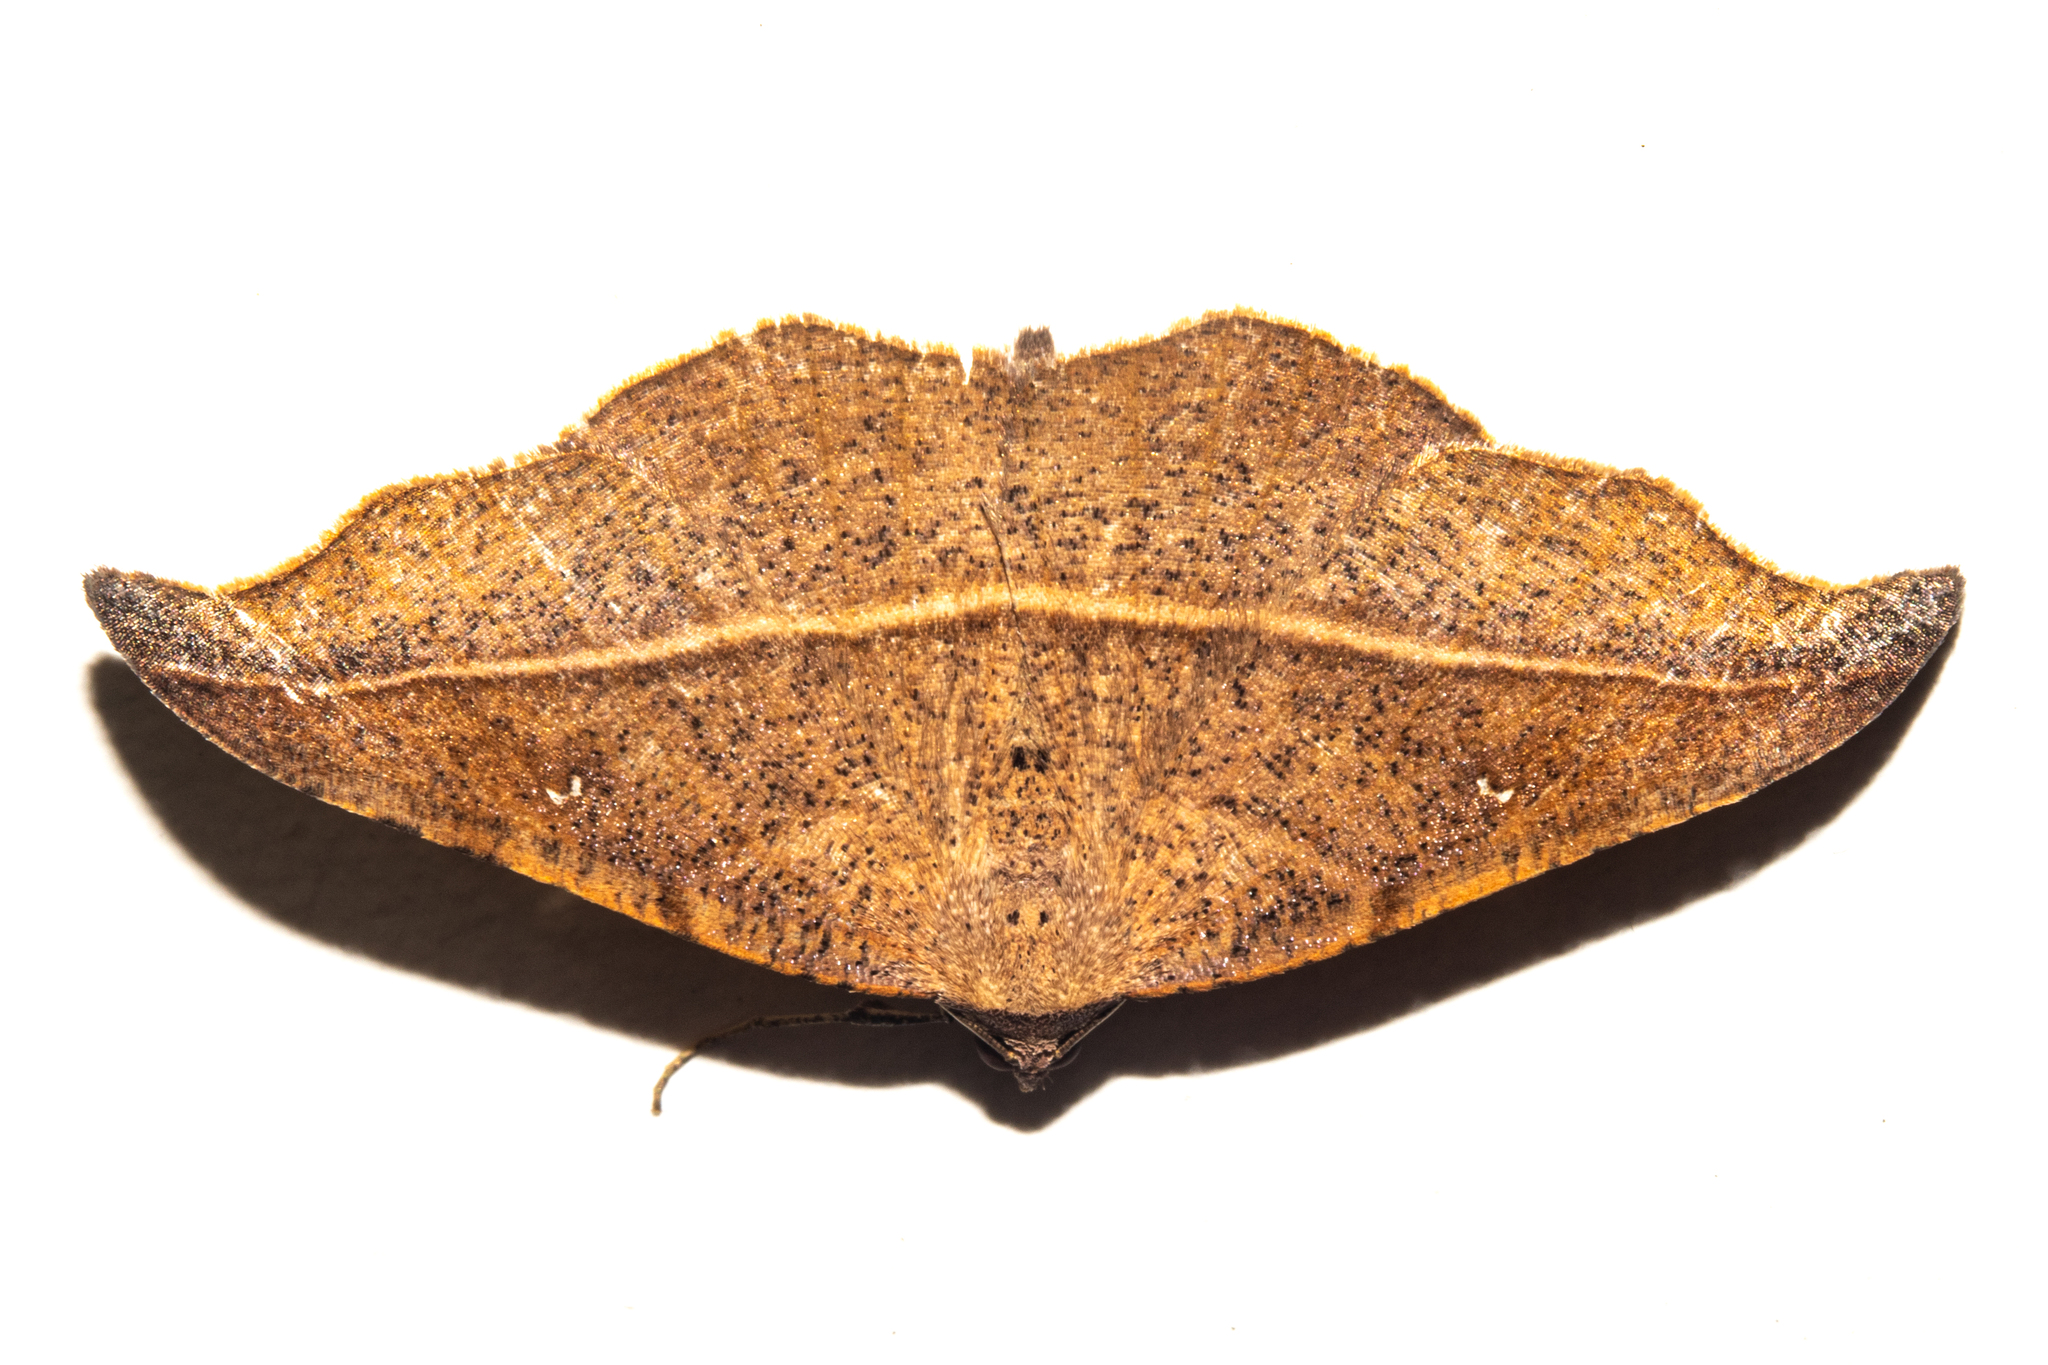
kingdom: Animalia
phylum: Arthropoda
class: Insecta
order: Lepidoptera
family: Geometridae
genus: Sarisa
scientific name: Sarisa muriferata
